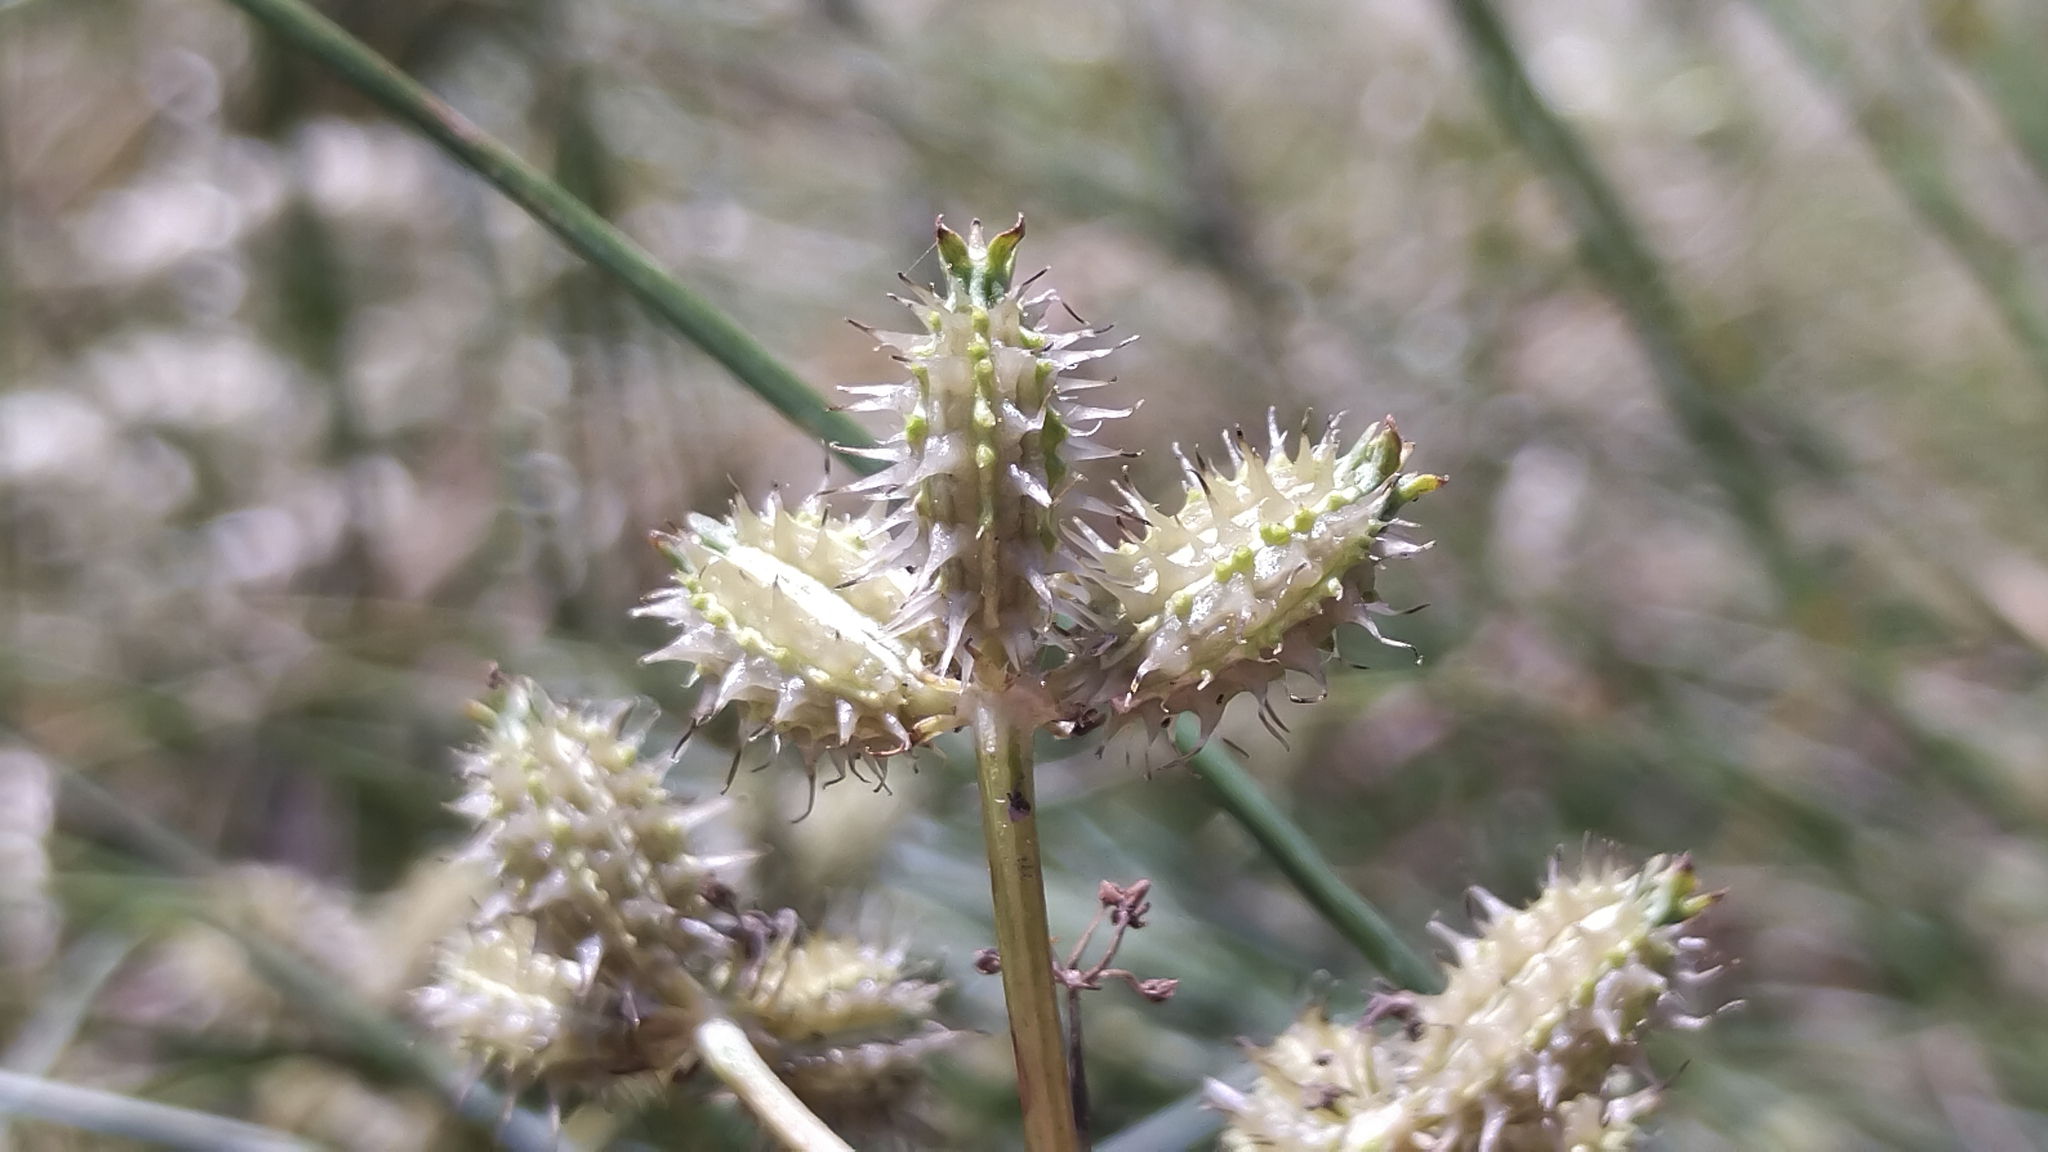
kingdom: Plantae
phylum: Tracheophyta
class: Magnoliopsida
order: Apiales
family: Apiaceae
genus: Caucalis
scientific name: Caucalis platycarpos
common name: Small bur-parsley
